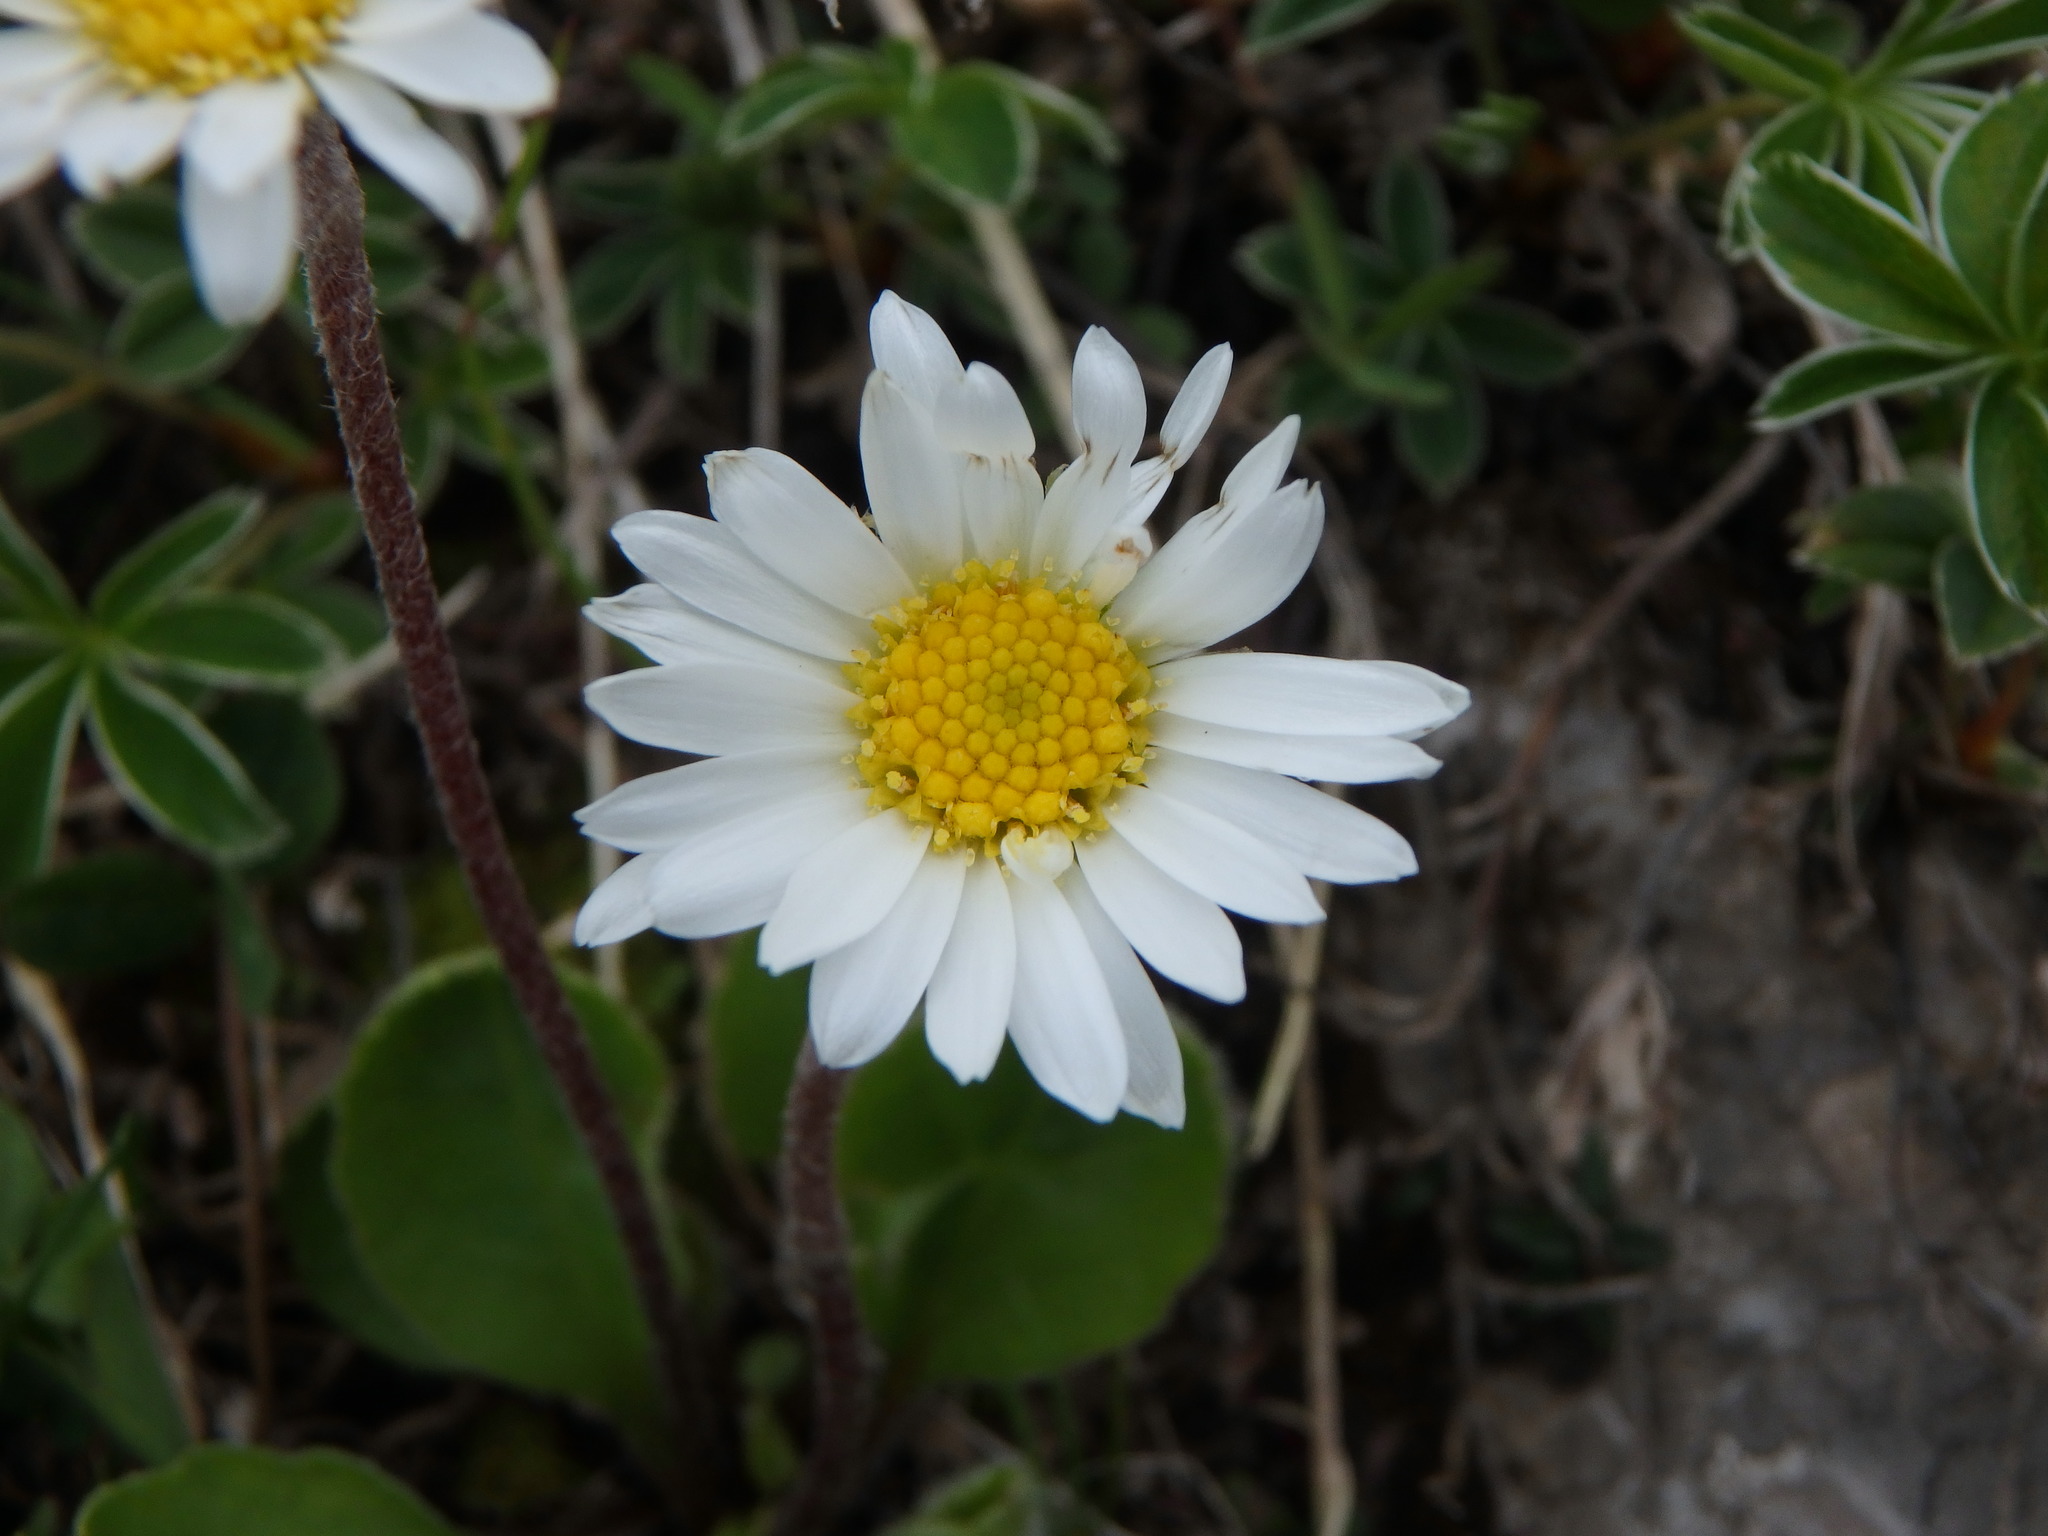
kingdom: Plantae
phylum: Tracheophyta
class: Magnoliopsida
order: Asterales
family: Asteraceae
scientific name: Asteraceae
